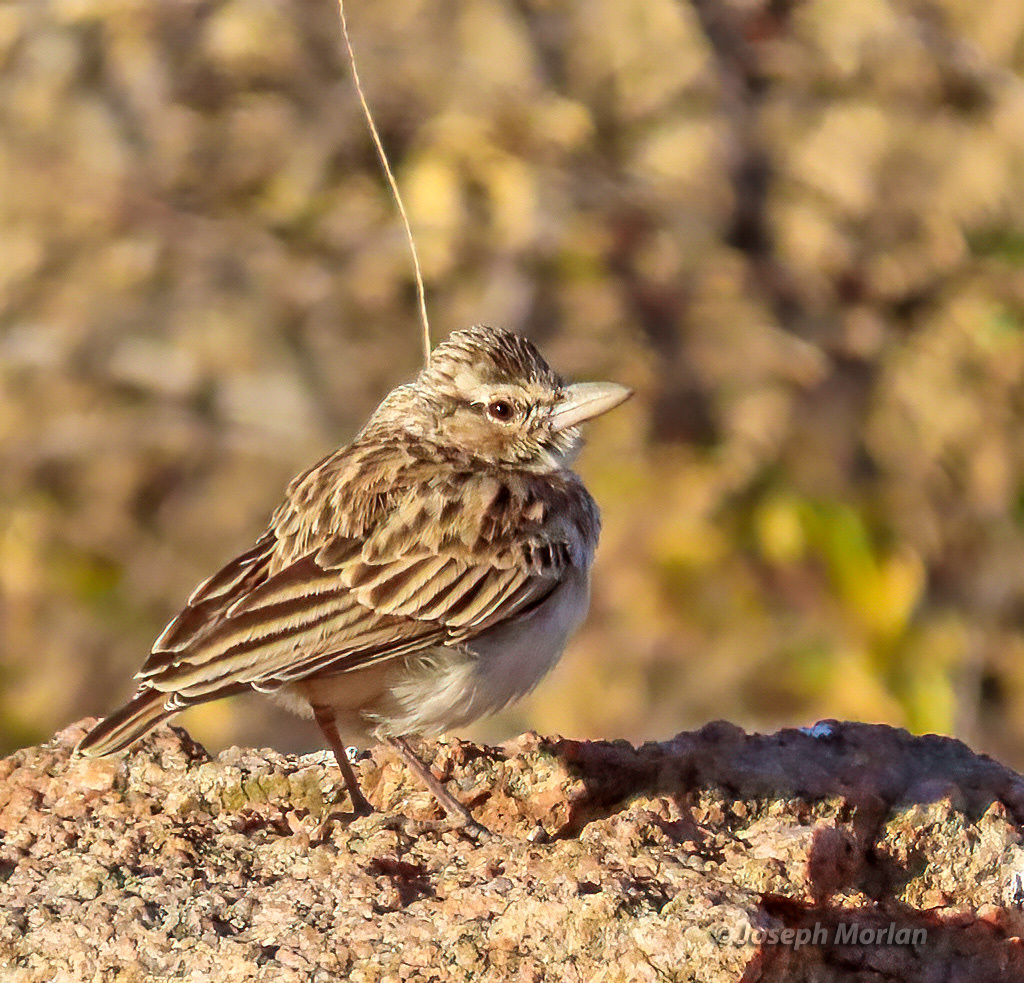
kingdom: Animalia
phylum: Chordata
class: Aves
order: Passeriformes
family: Alaudidae
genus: Calendulauda
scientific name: Calendulauda sabota
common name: Sabota lark
